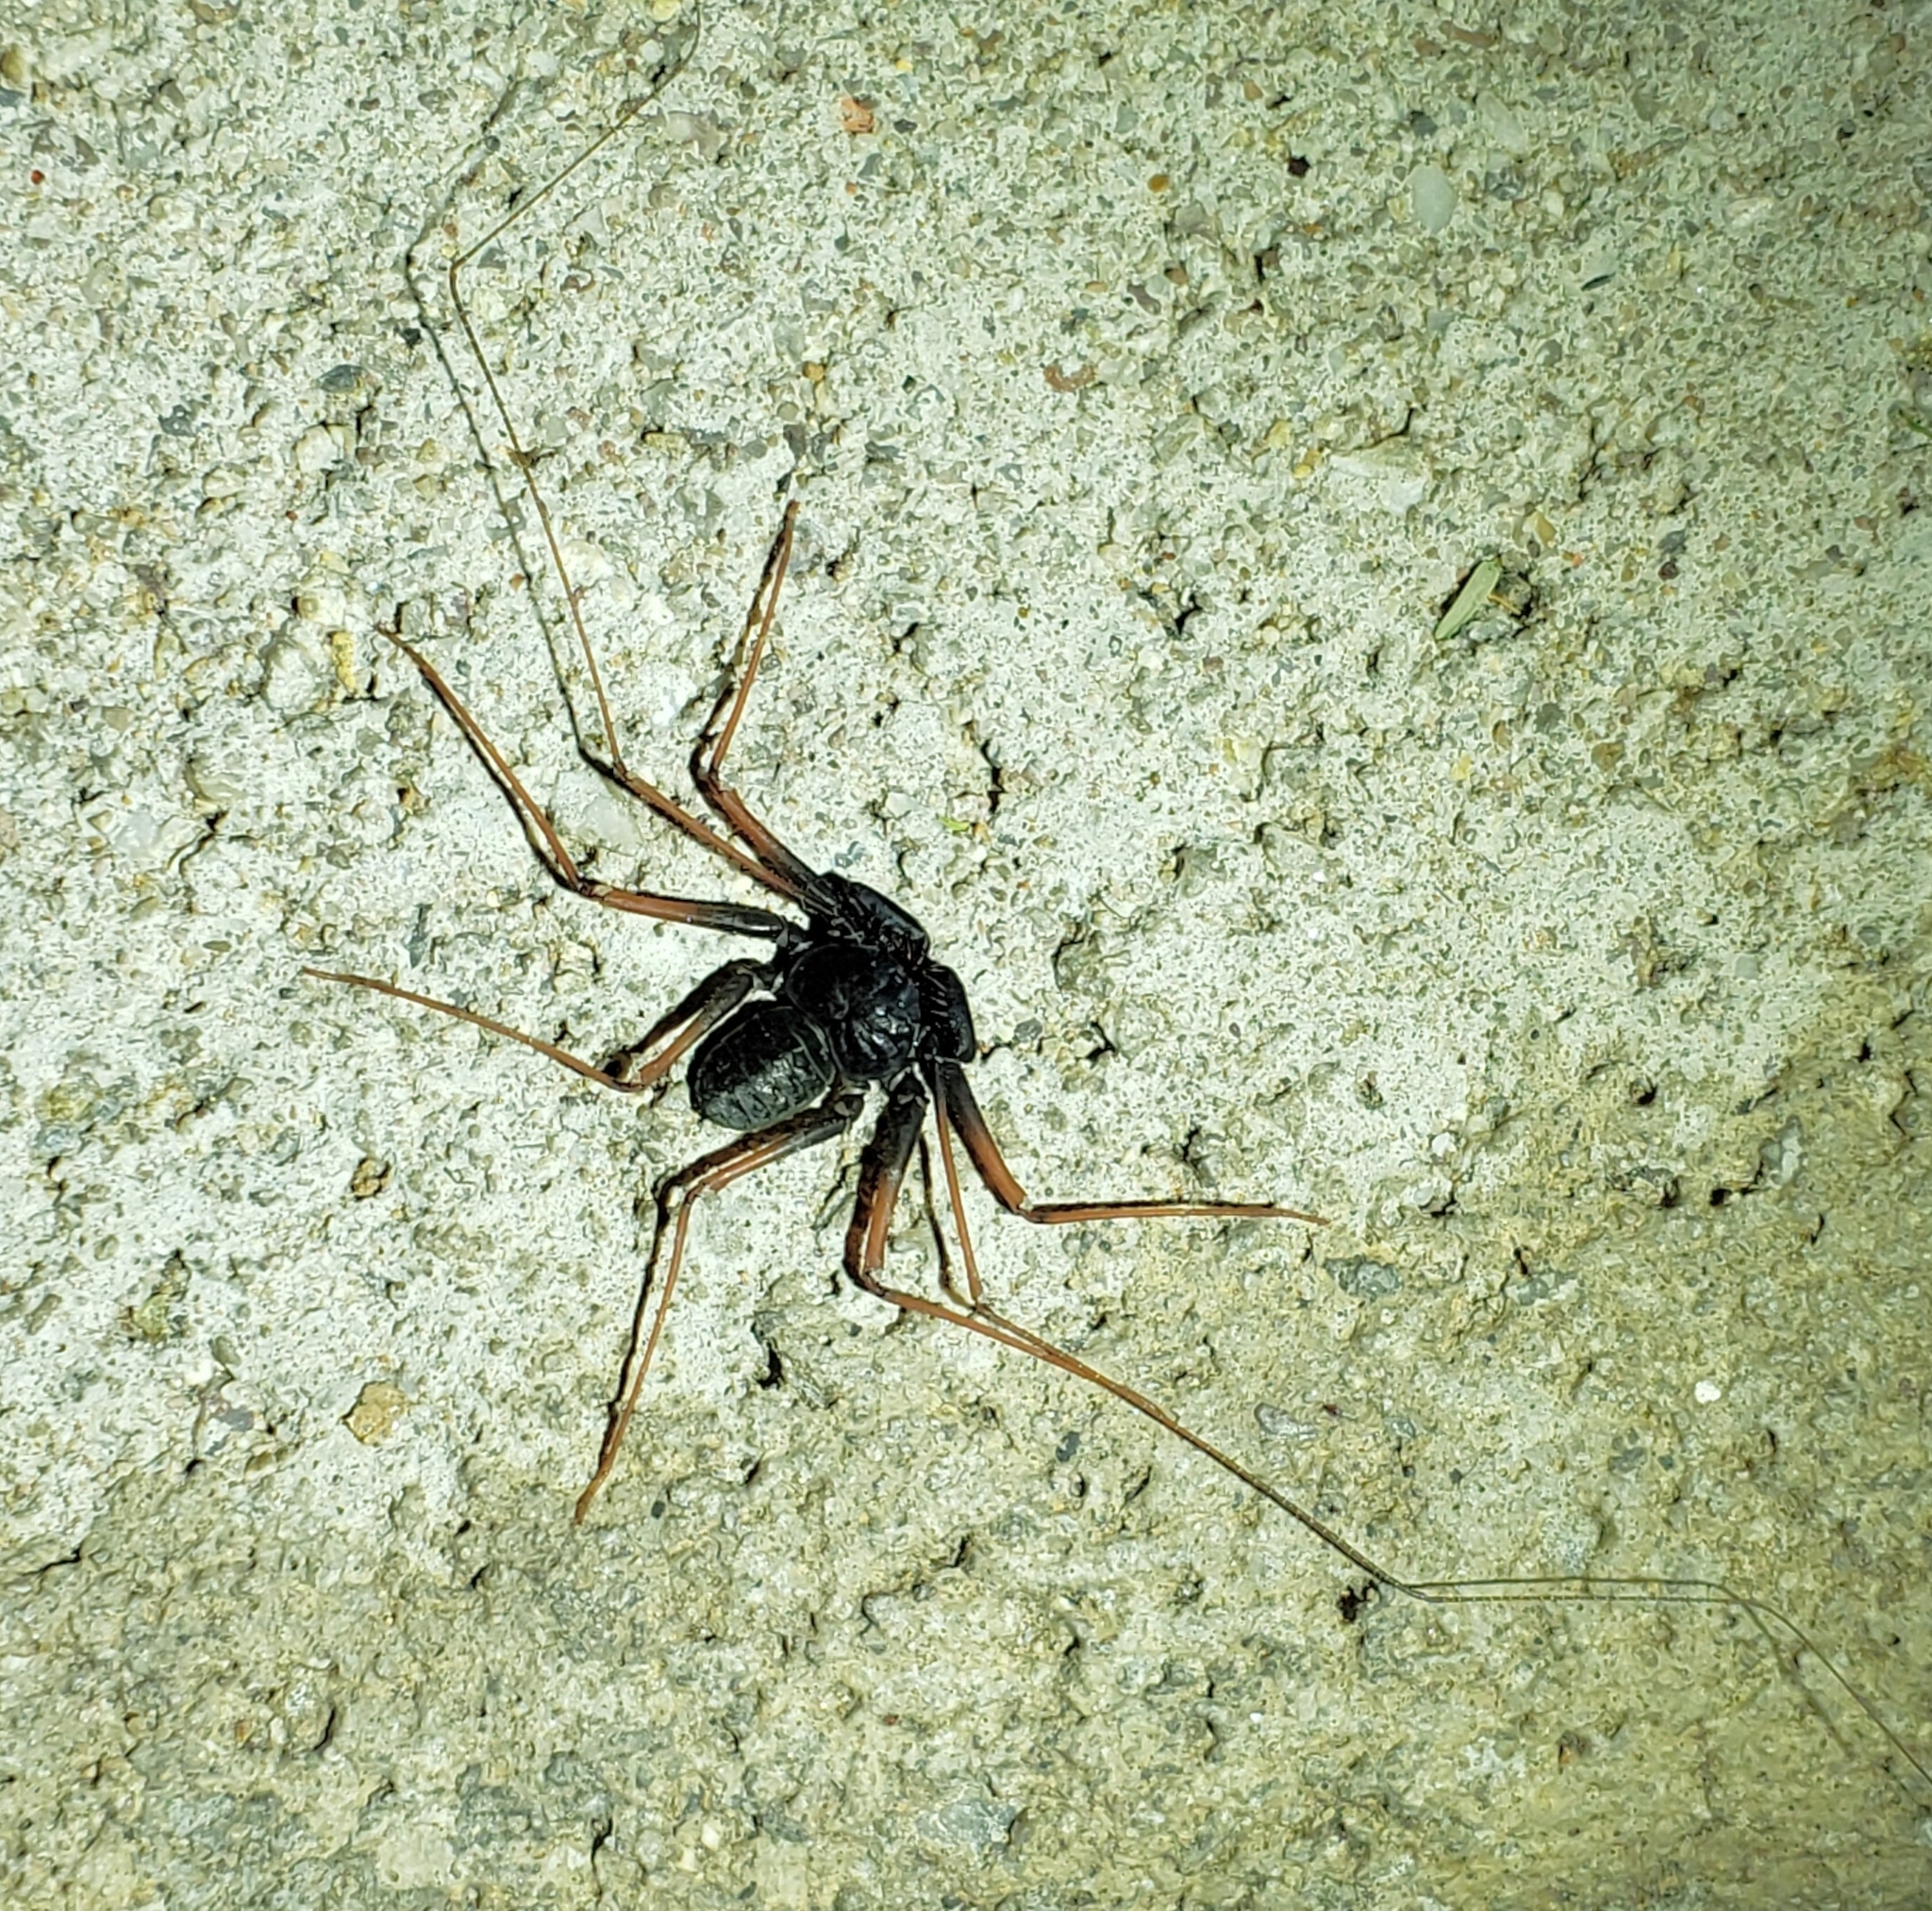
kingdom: Animalia
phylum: Arthropoda
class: Arachnida
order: Amblypygi
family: Phrynidae
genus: Paraphrynus
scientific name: Paraphrynus carolynae
